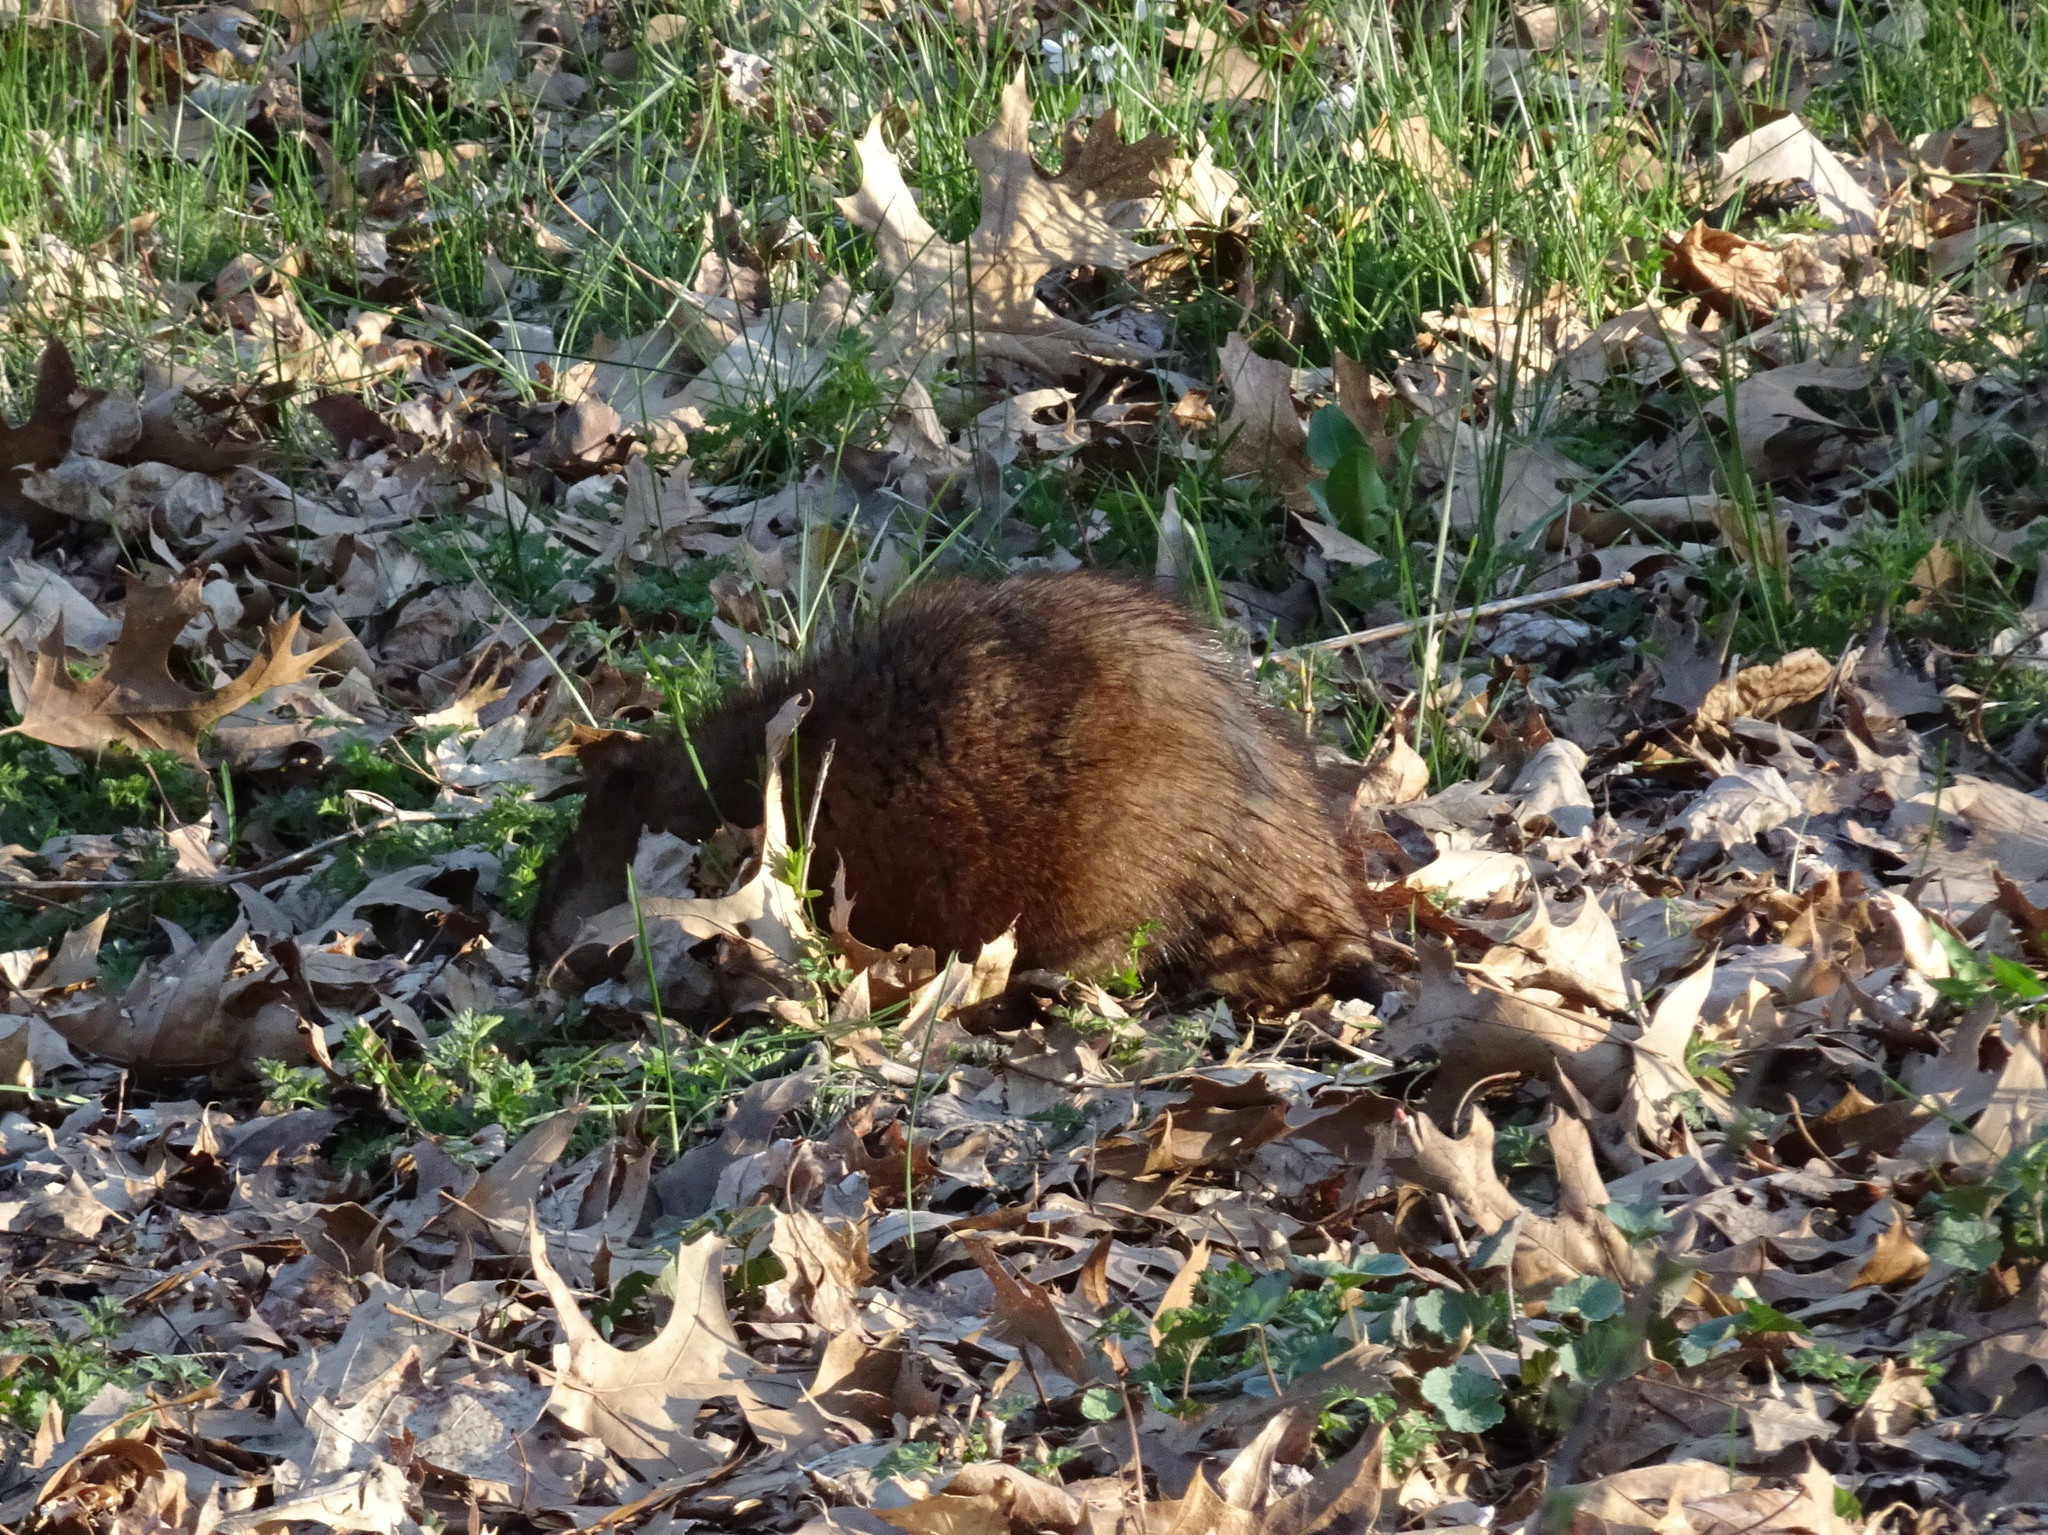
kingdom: Animalia
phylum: Chordata
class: Mammalia
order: Rodentia
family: Cricetidae
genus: Ondatra
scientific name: Ondatra zibethicus
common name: Muskrat
